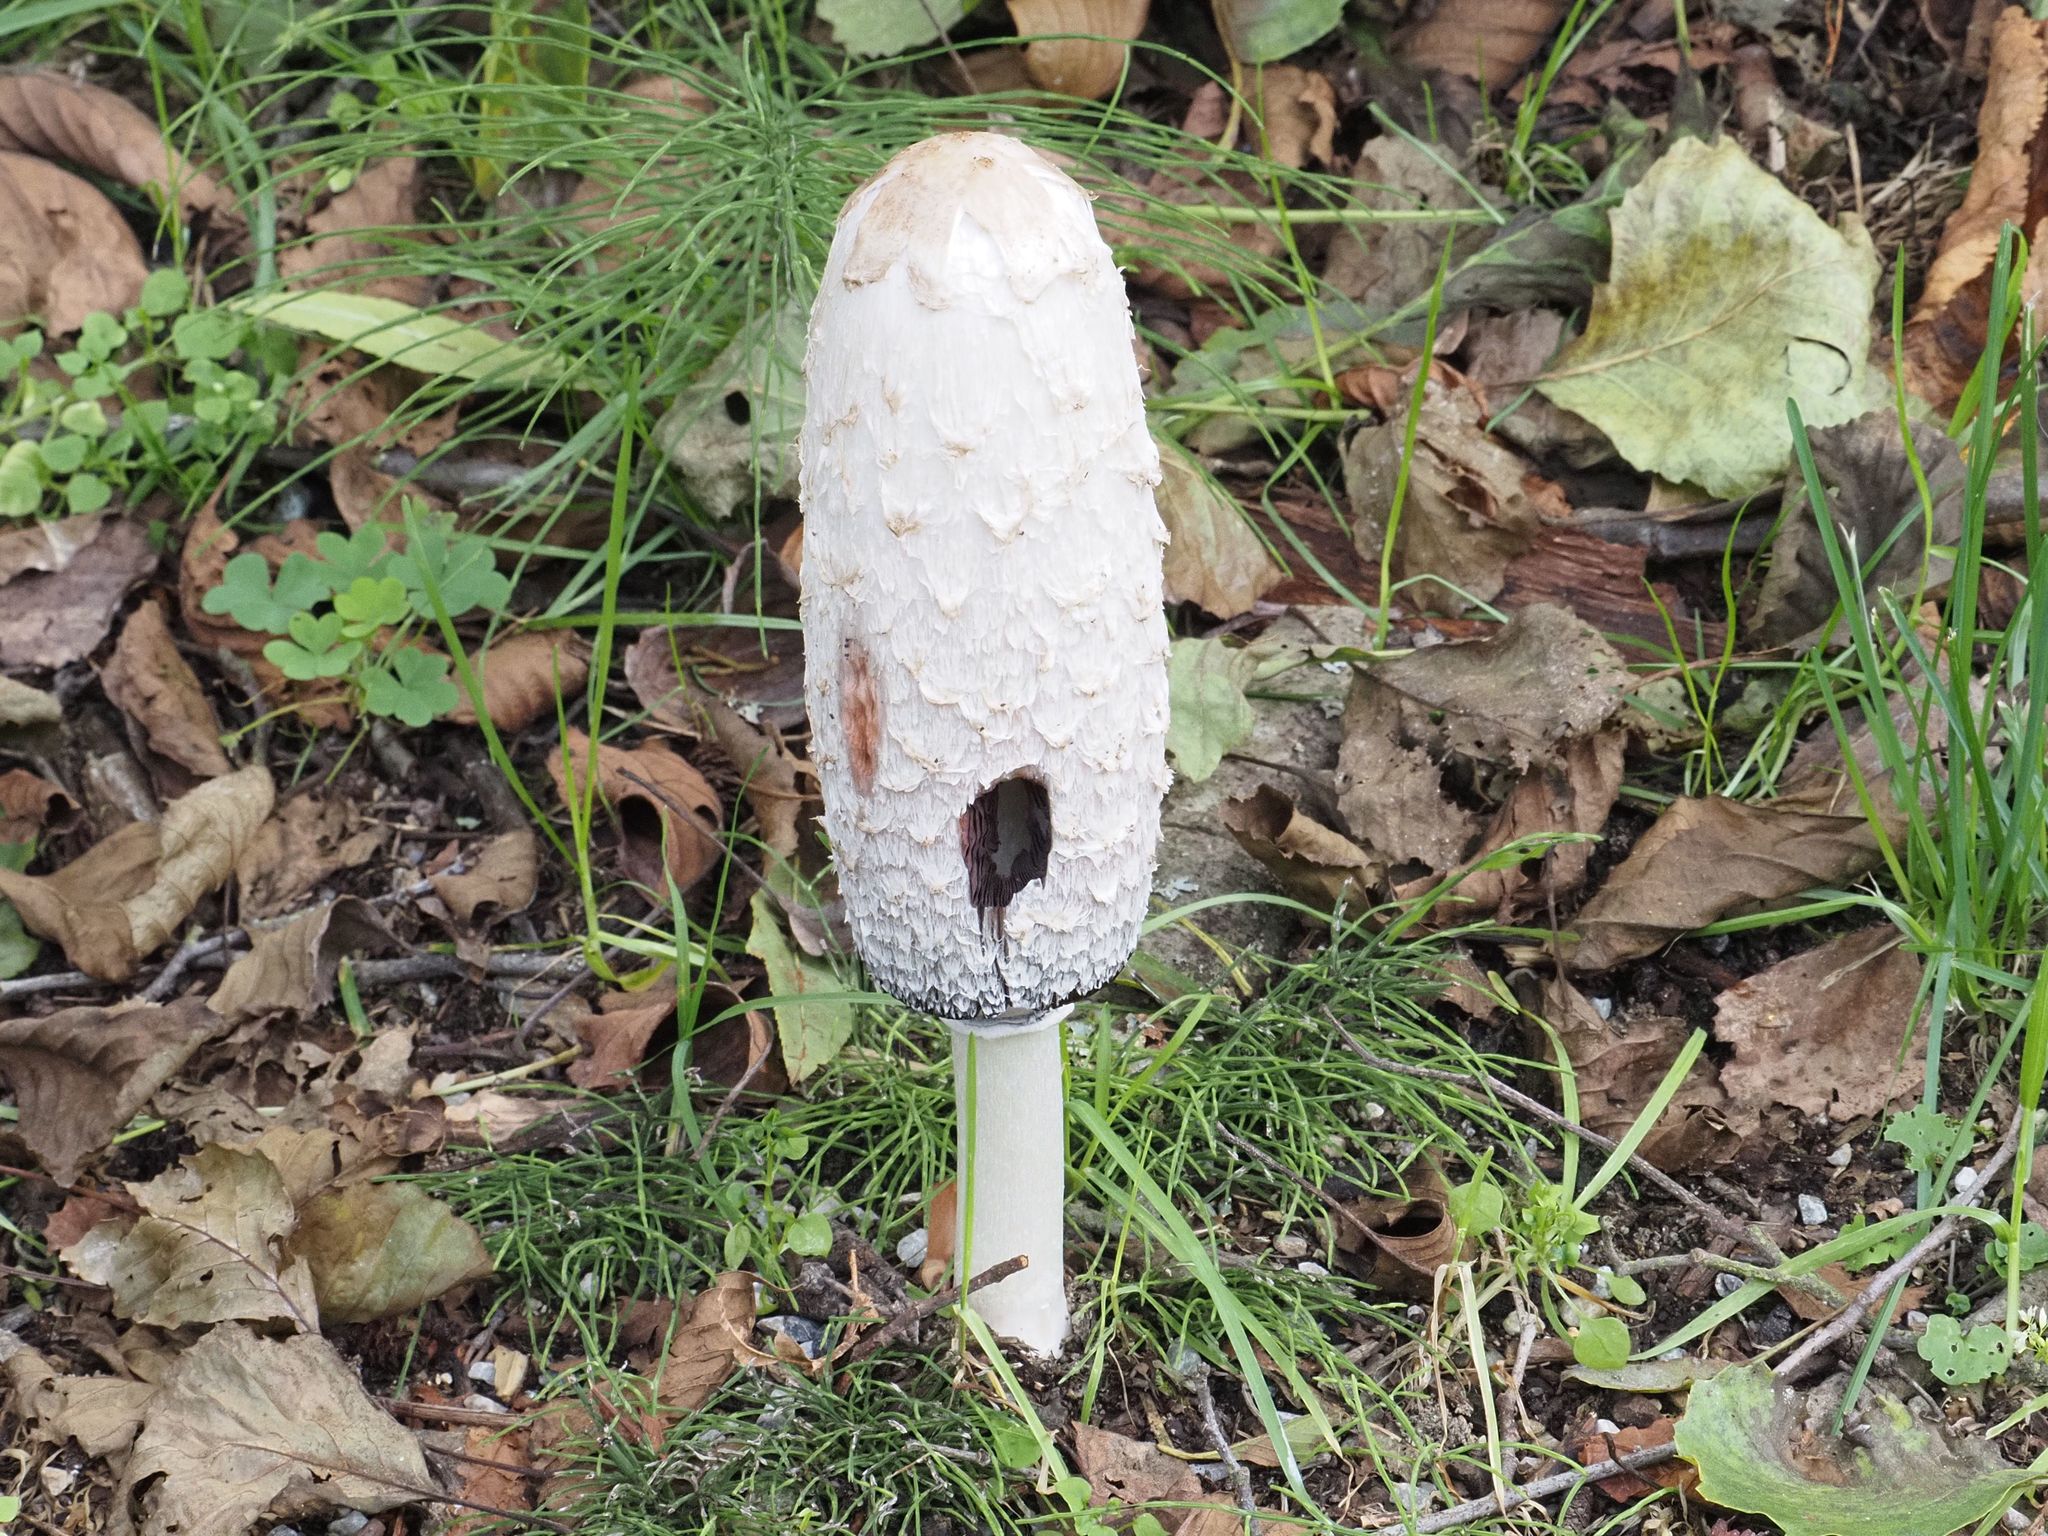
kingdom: Fungi
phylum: Basidiomycota
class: Agaricomycetes
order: Agaricales
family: Agaricaceae
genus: Coprinus
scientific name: Coprinus comatus
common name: Lawyer's wig
